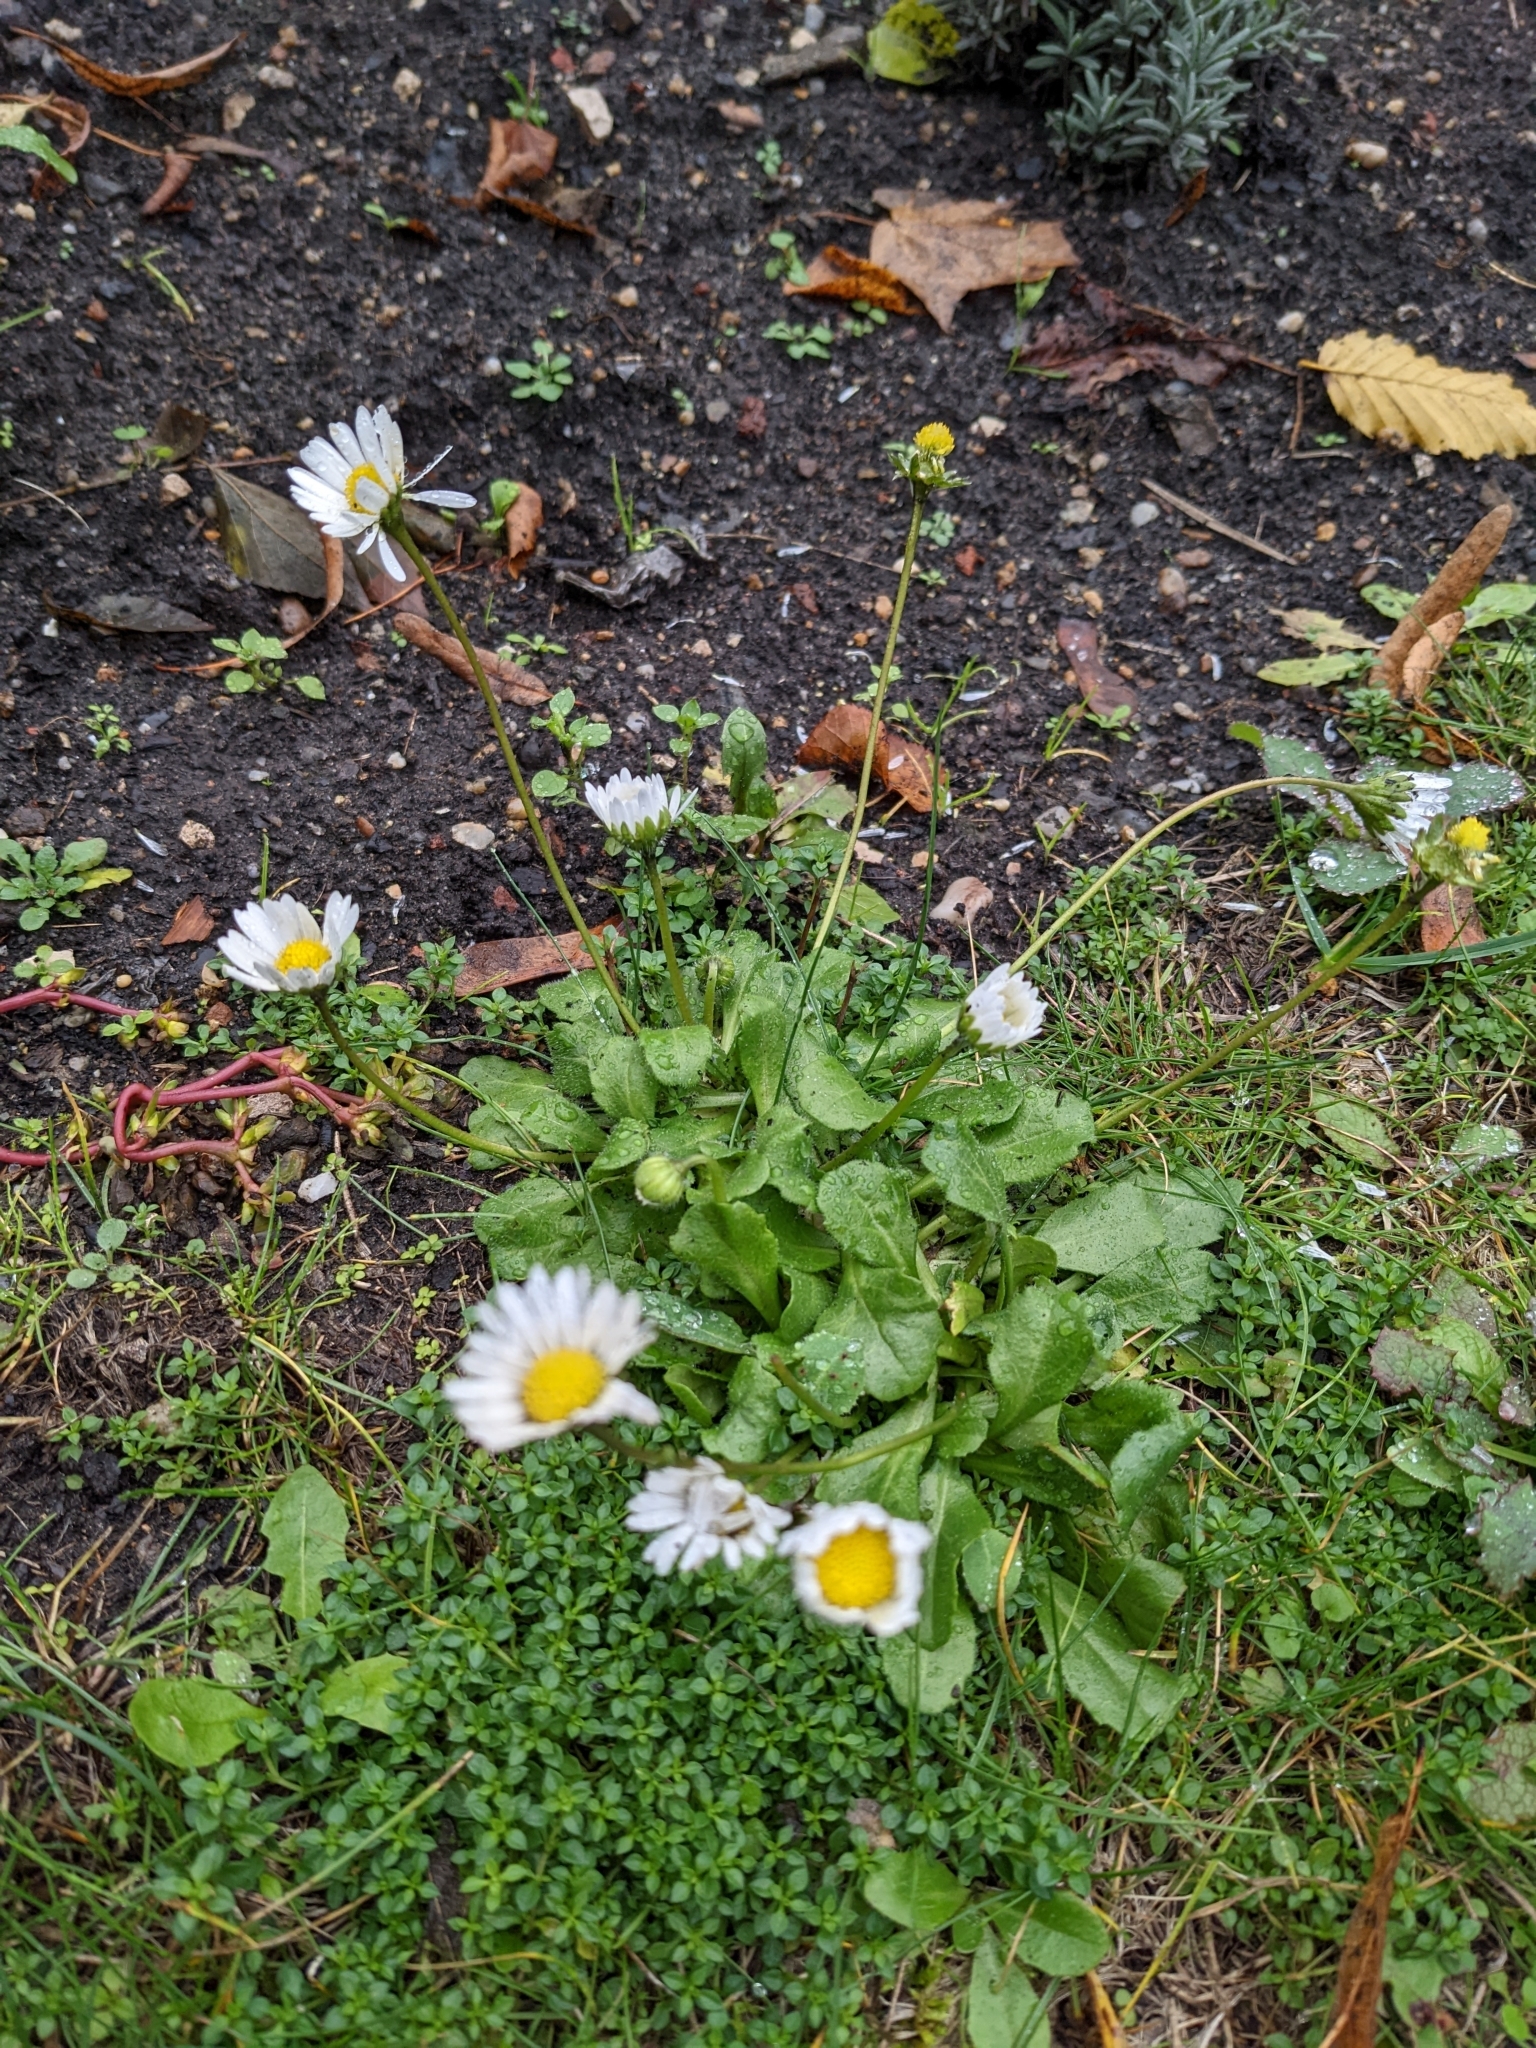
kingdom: Plantae
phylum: Tracheophyta
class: Magnoliopsida
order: Asterales
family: Asteraceae
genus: Bellis
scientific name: Bellis perennis
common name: Lawndaisy
